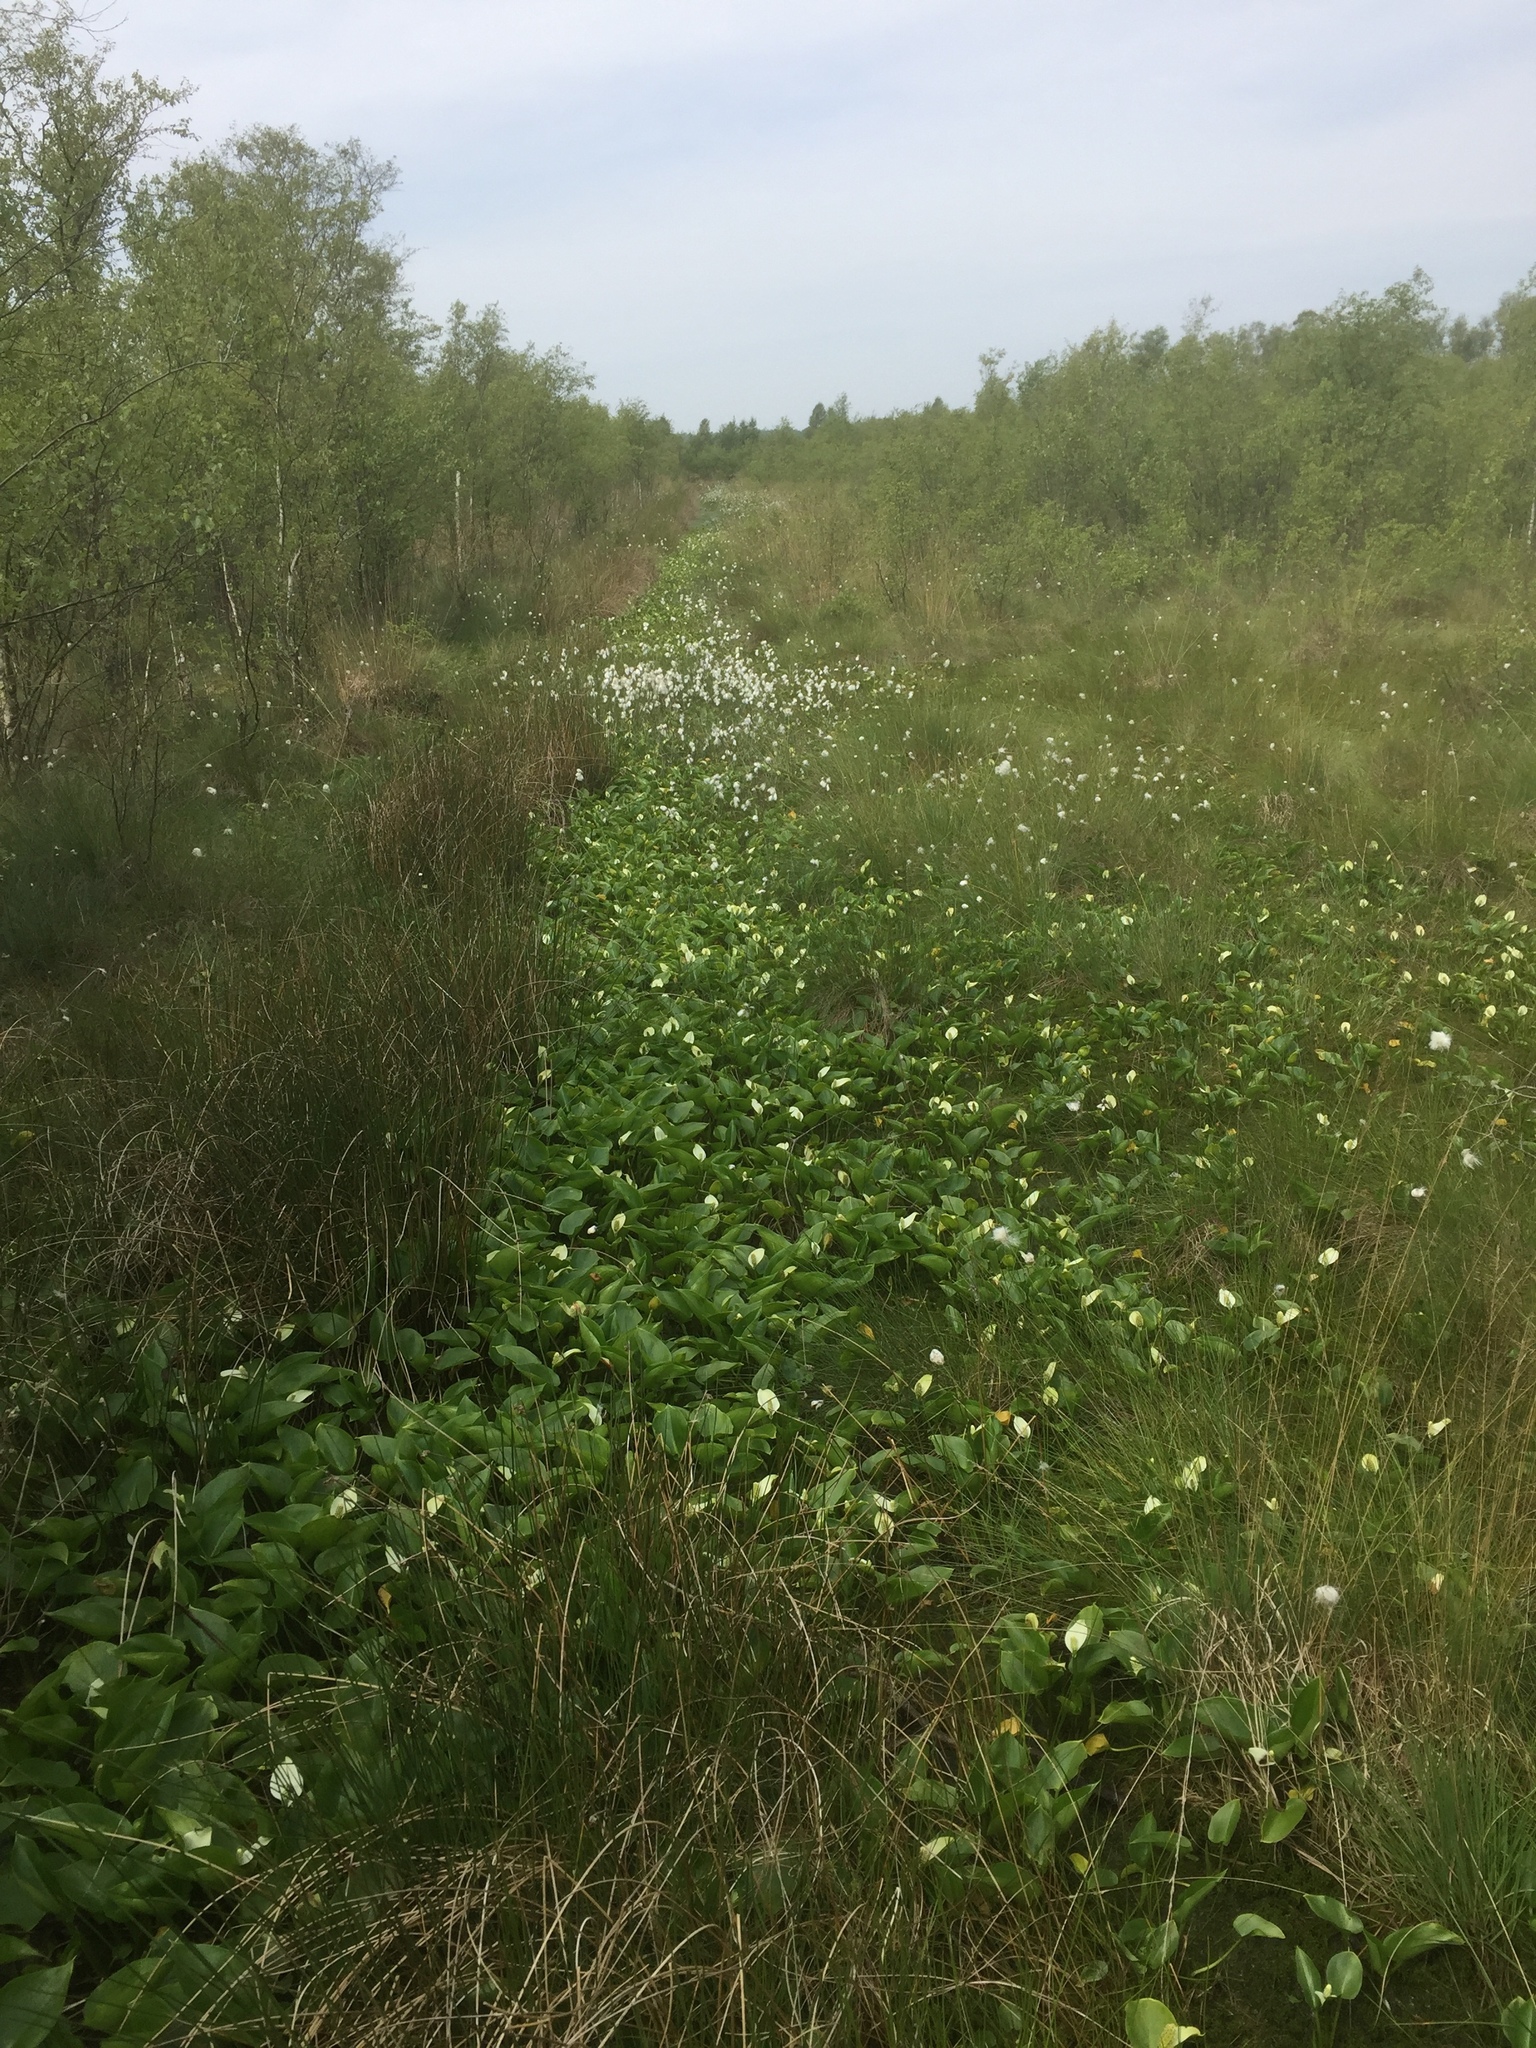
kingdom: Plantae
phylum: Tracheophyta
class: Liliopsida
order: Alismatales
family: Araceae
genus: Calla
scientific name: Calla palustris
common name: Bog arum
